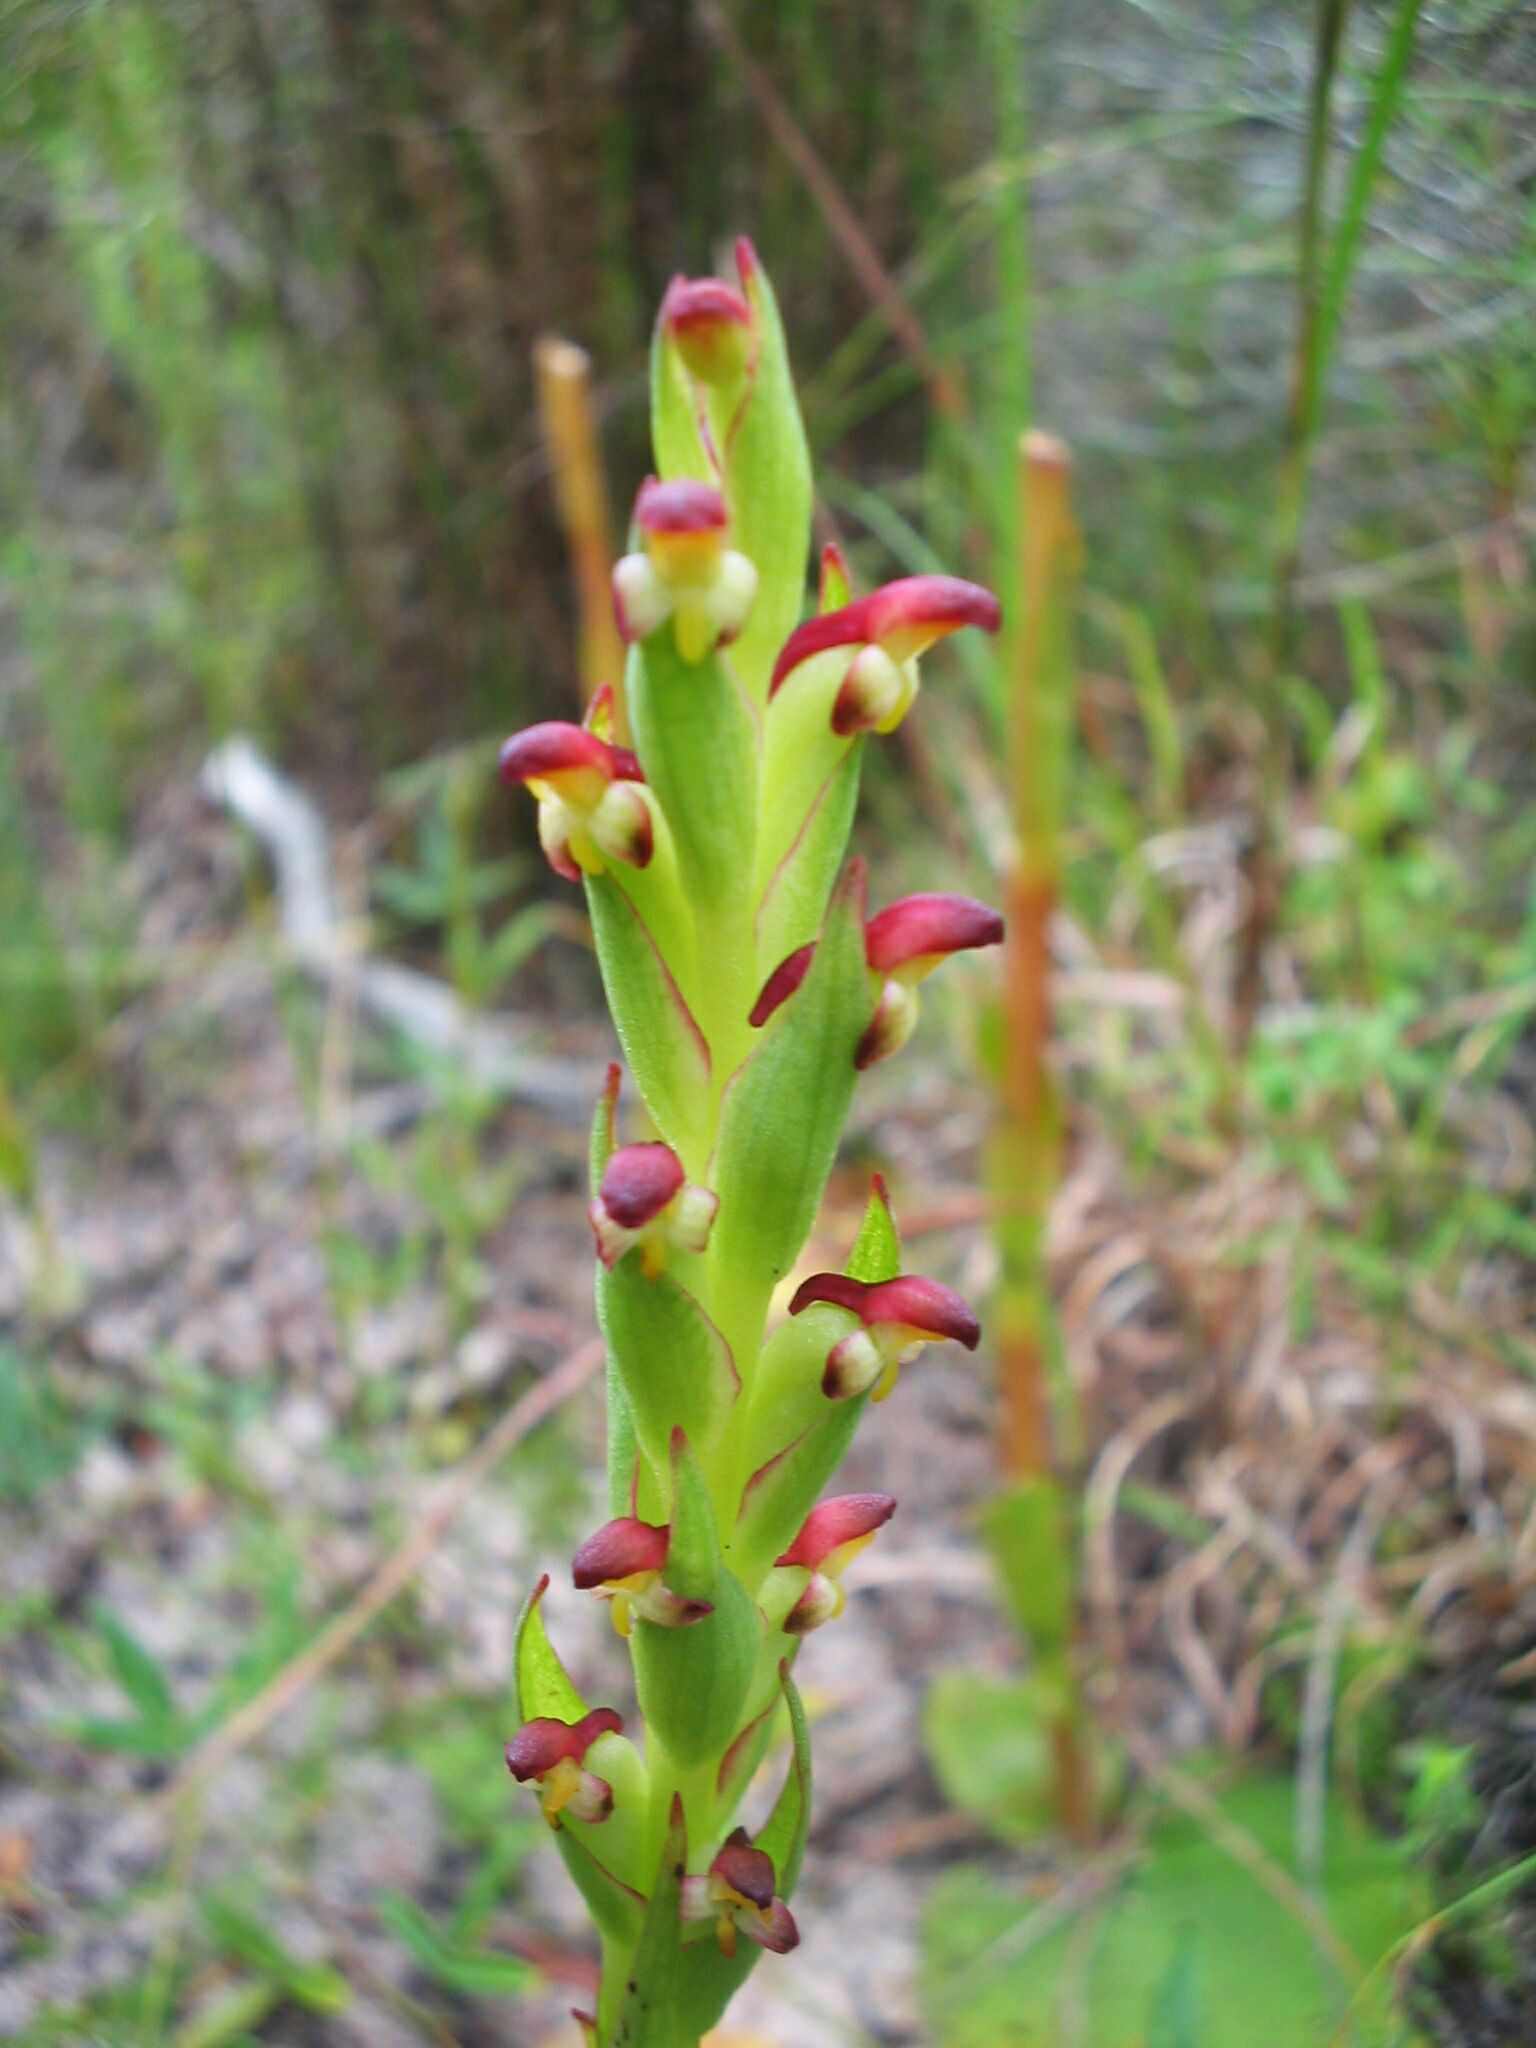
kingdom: Plantae
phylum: Tracheophyta
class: Liliopsida
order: Asparagales
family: Orchidaceae
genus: Disa
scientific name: Disa bracteata
